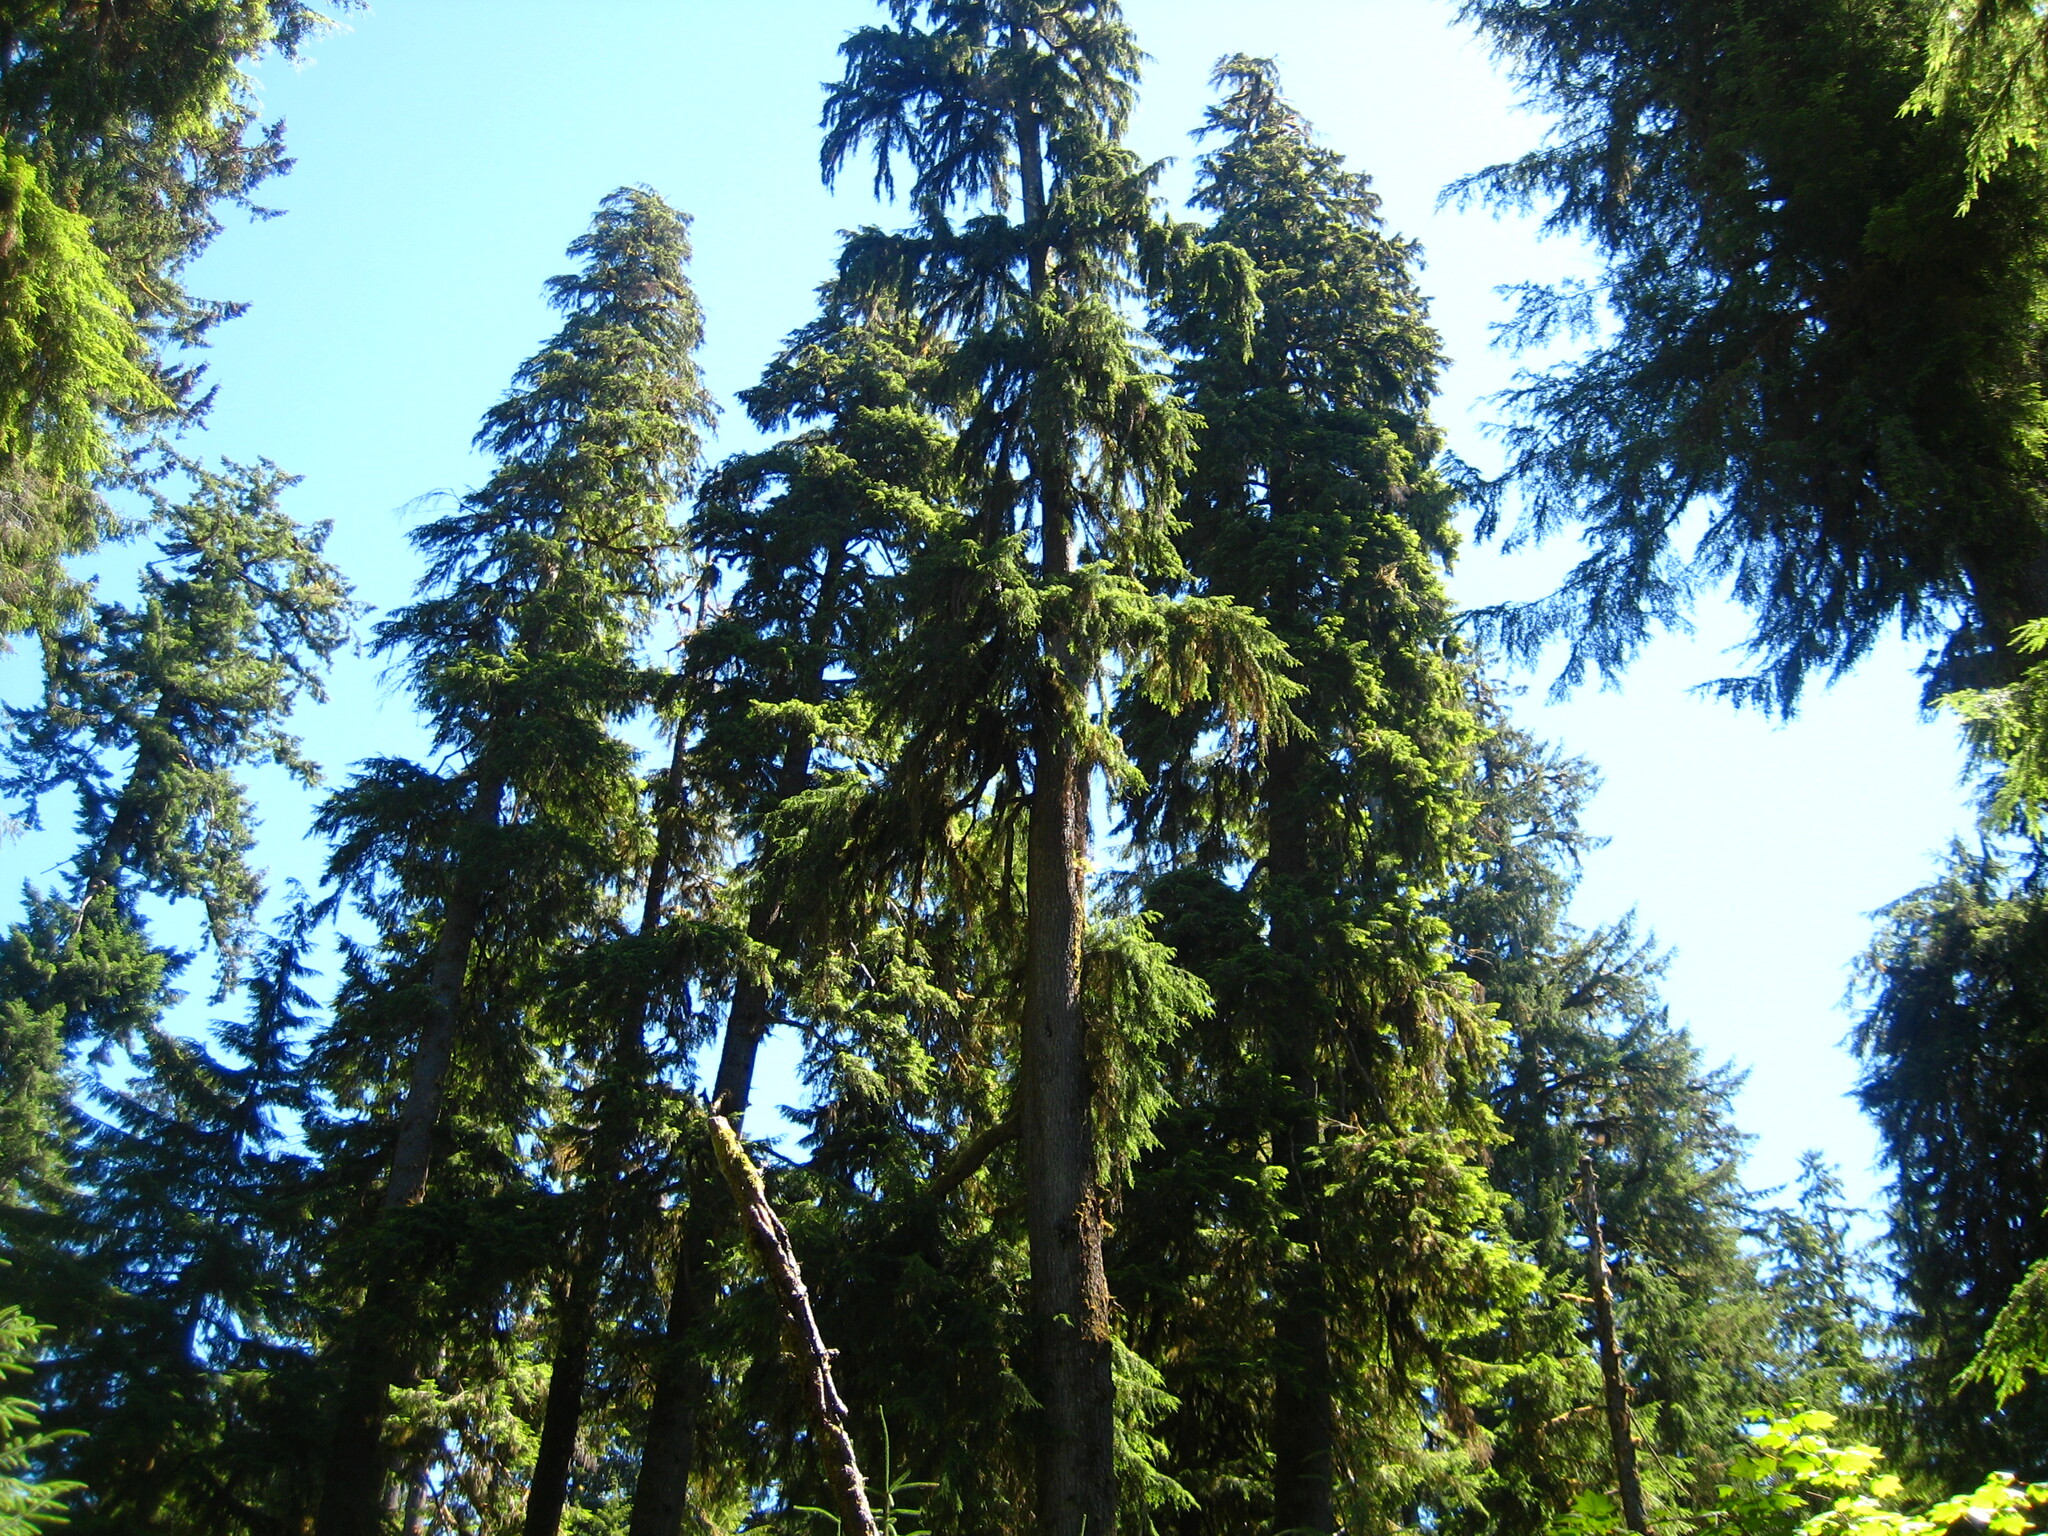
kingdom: Plantae
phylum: Tracheophyta
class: Pinopsida
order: Pinales
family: Pinaceae
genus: Tsuga
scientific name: Tsuga heterophylla
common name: Western hemlock
